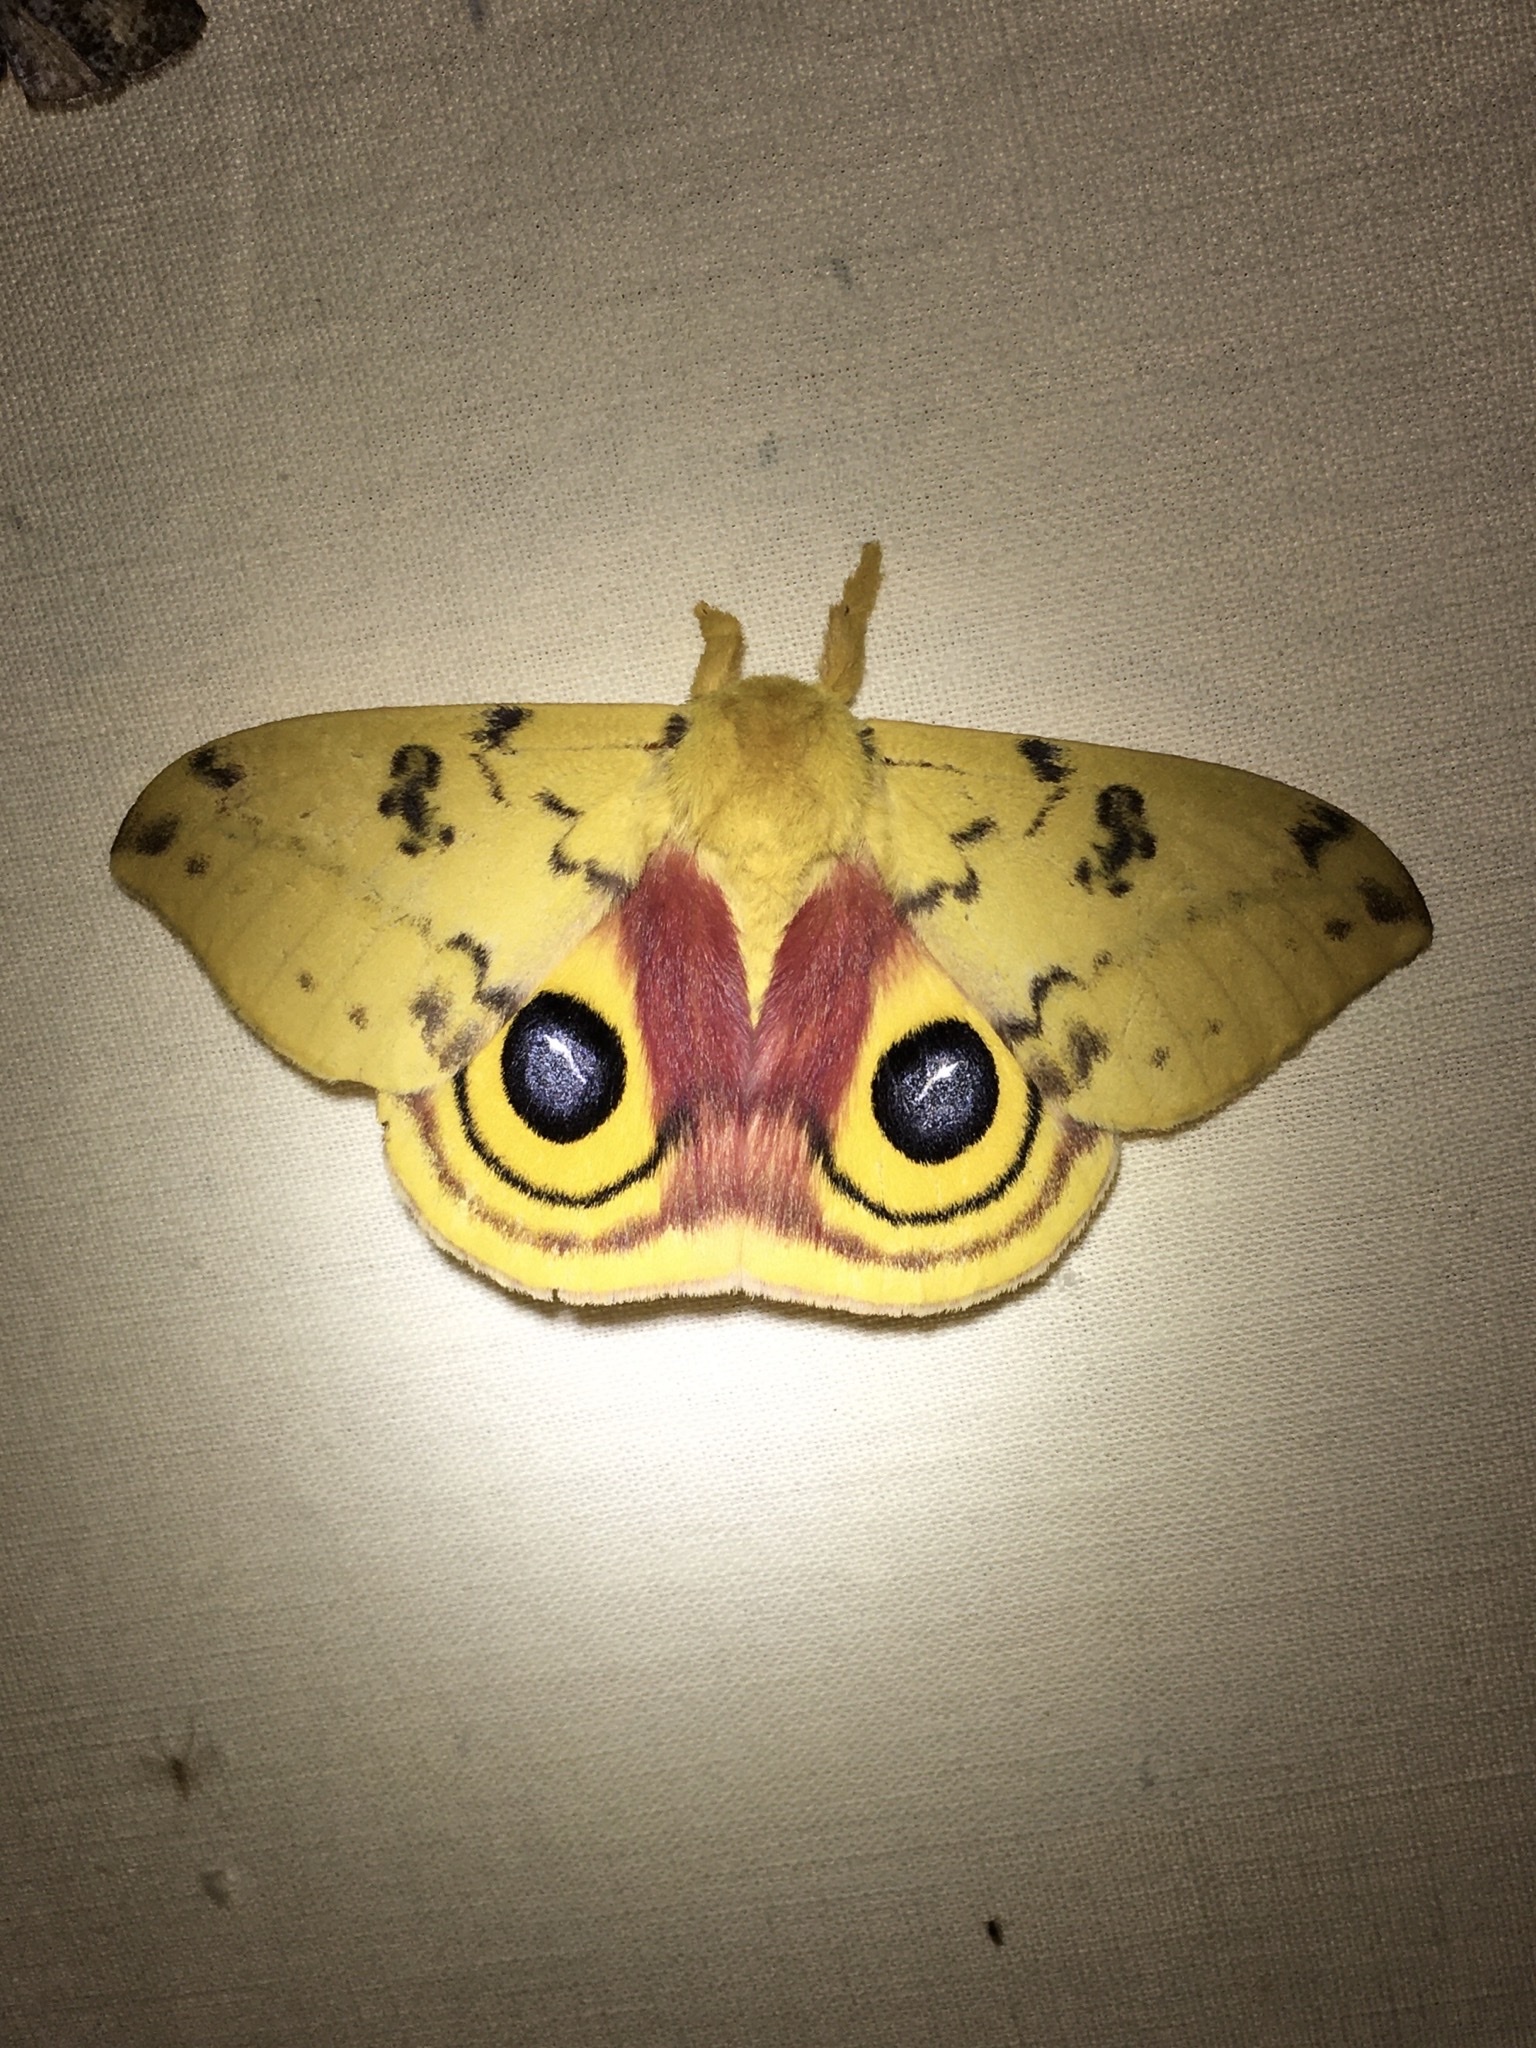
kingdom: Animalia
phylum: Arthropoda
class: Insecta
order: Lepidoptera
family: Saturniidae
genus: Automeris
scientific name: Automeris io
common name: Io moth
